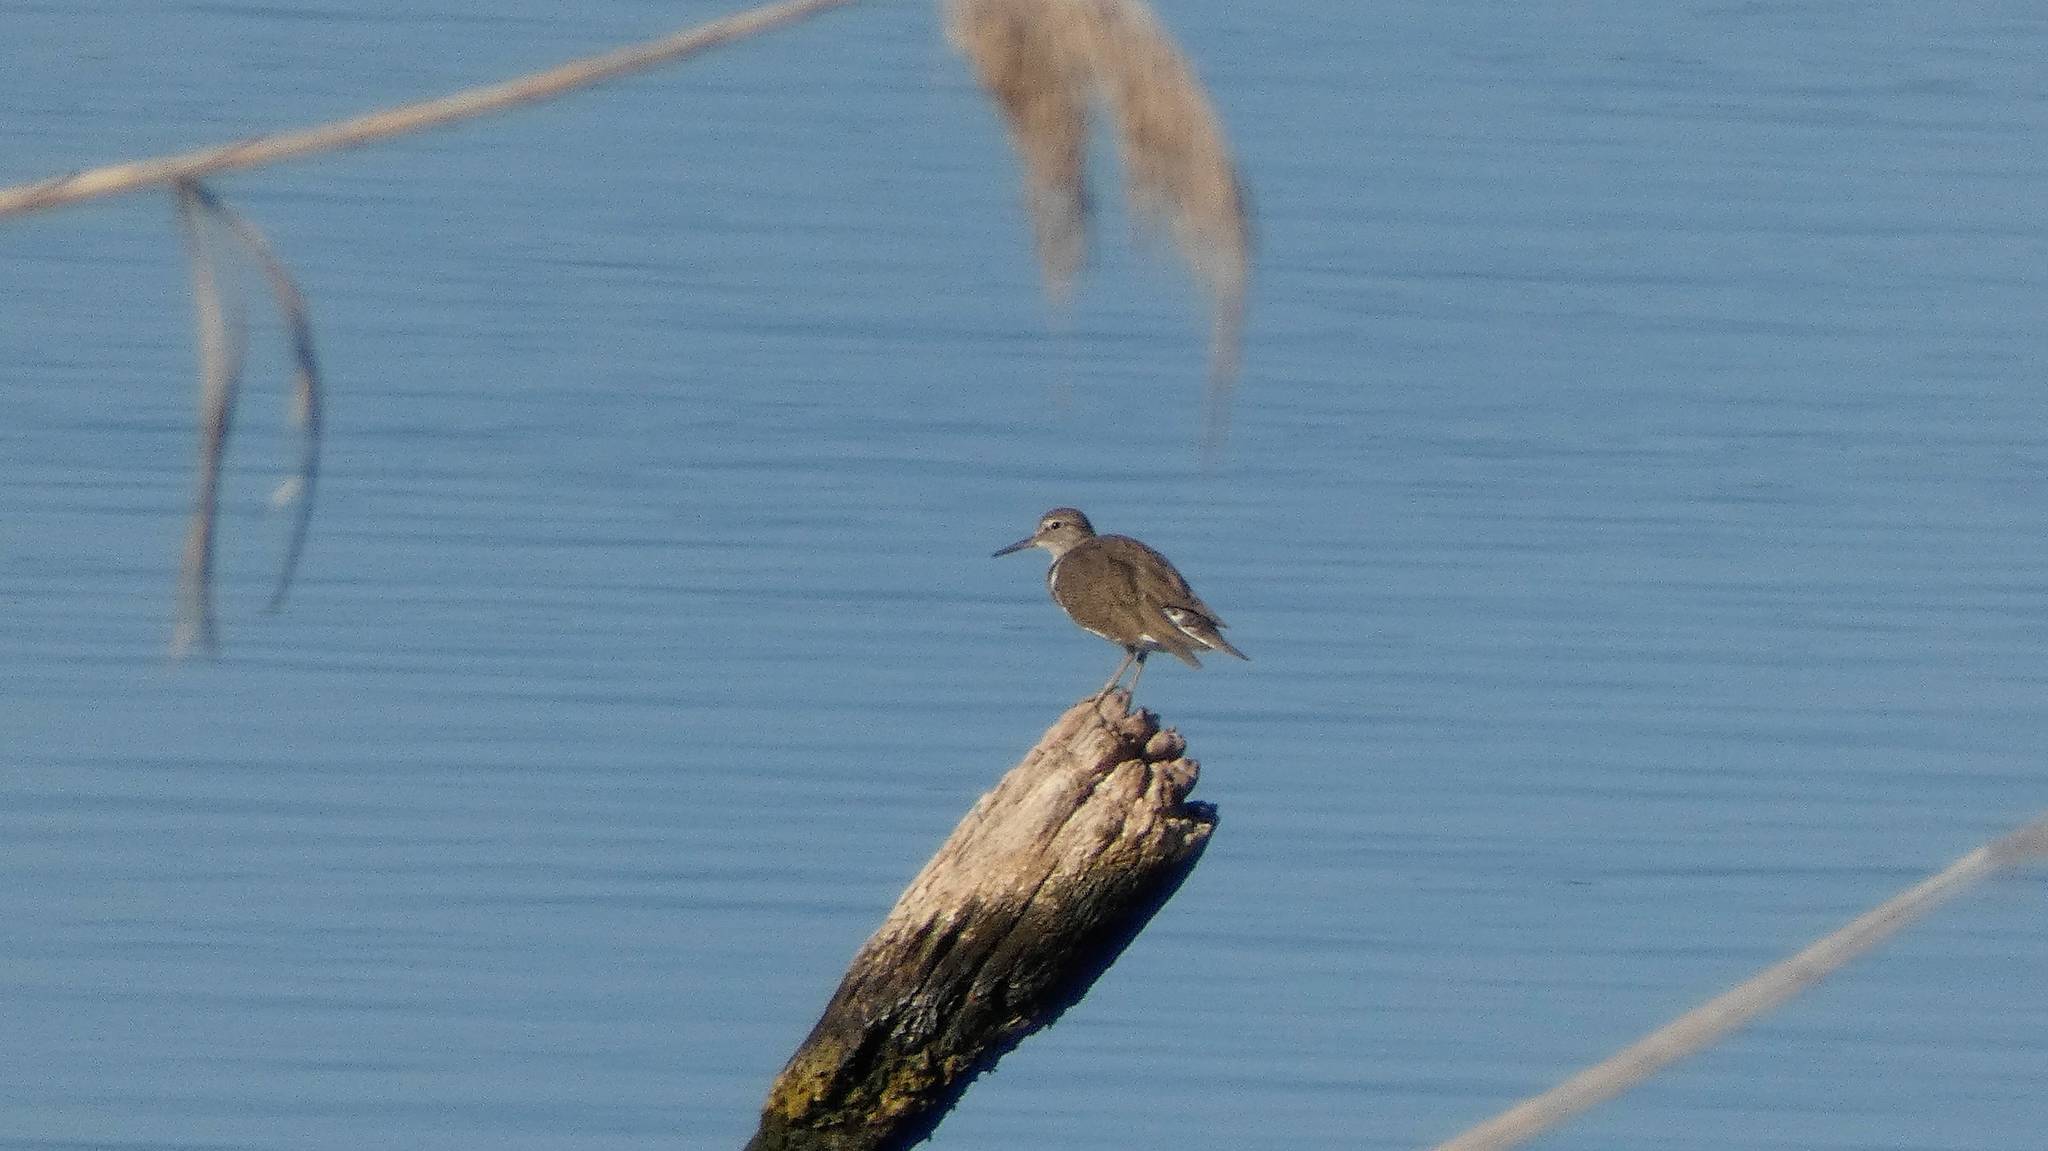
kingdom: Animalia
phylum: Chordata
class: Aves
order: Charadriiformes
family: Scolopacidae
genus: Actitis
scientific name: Actitis hypoleucos
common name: Common sandpiper
